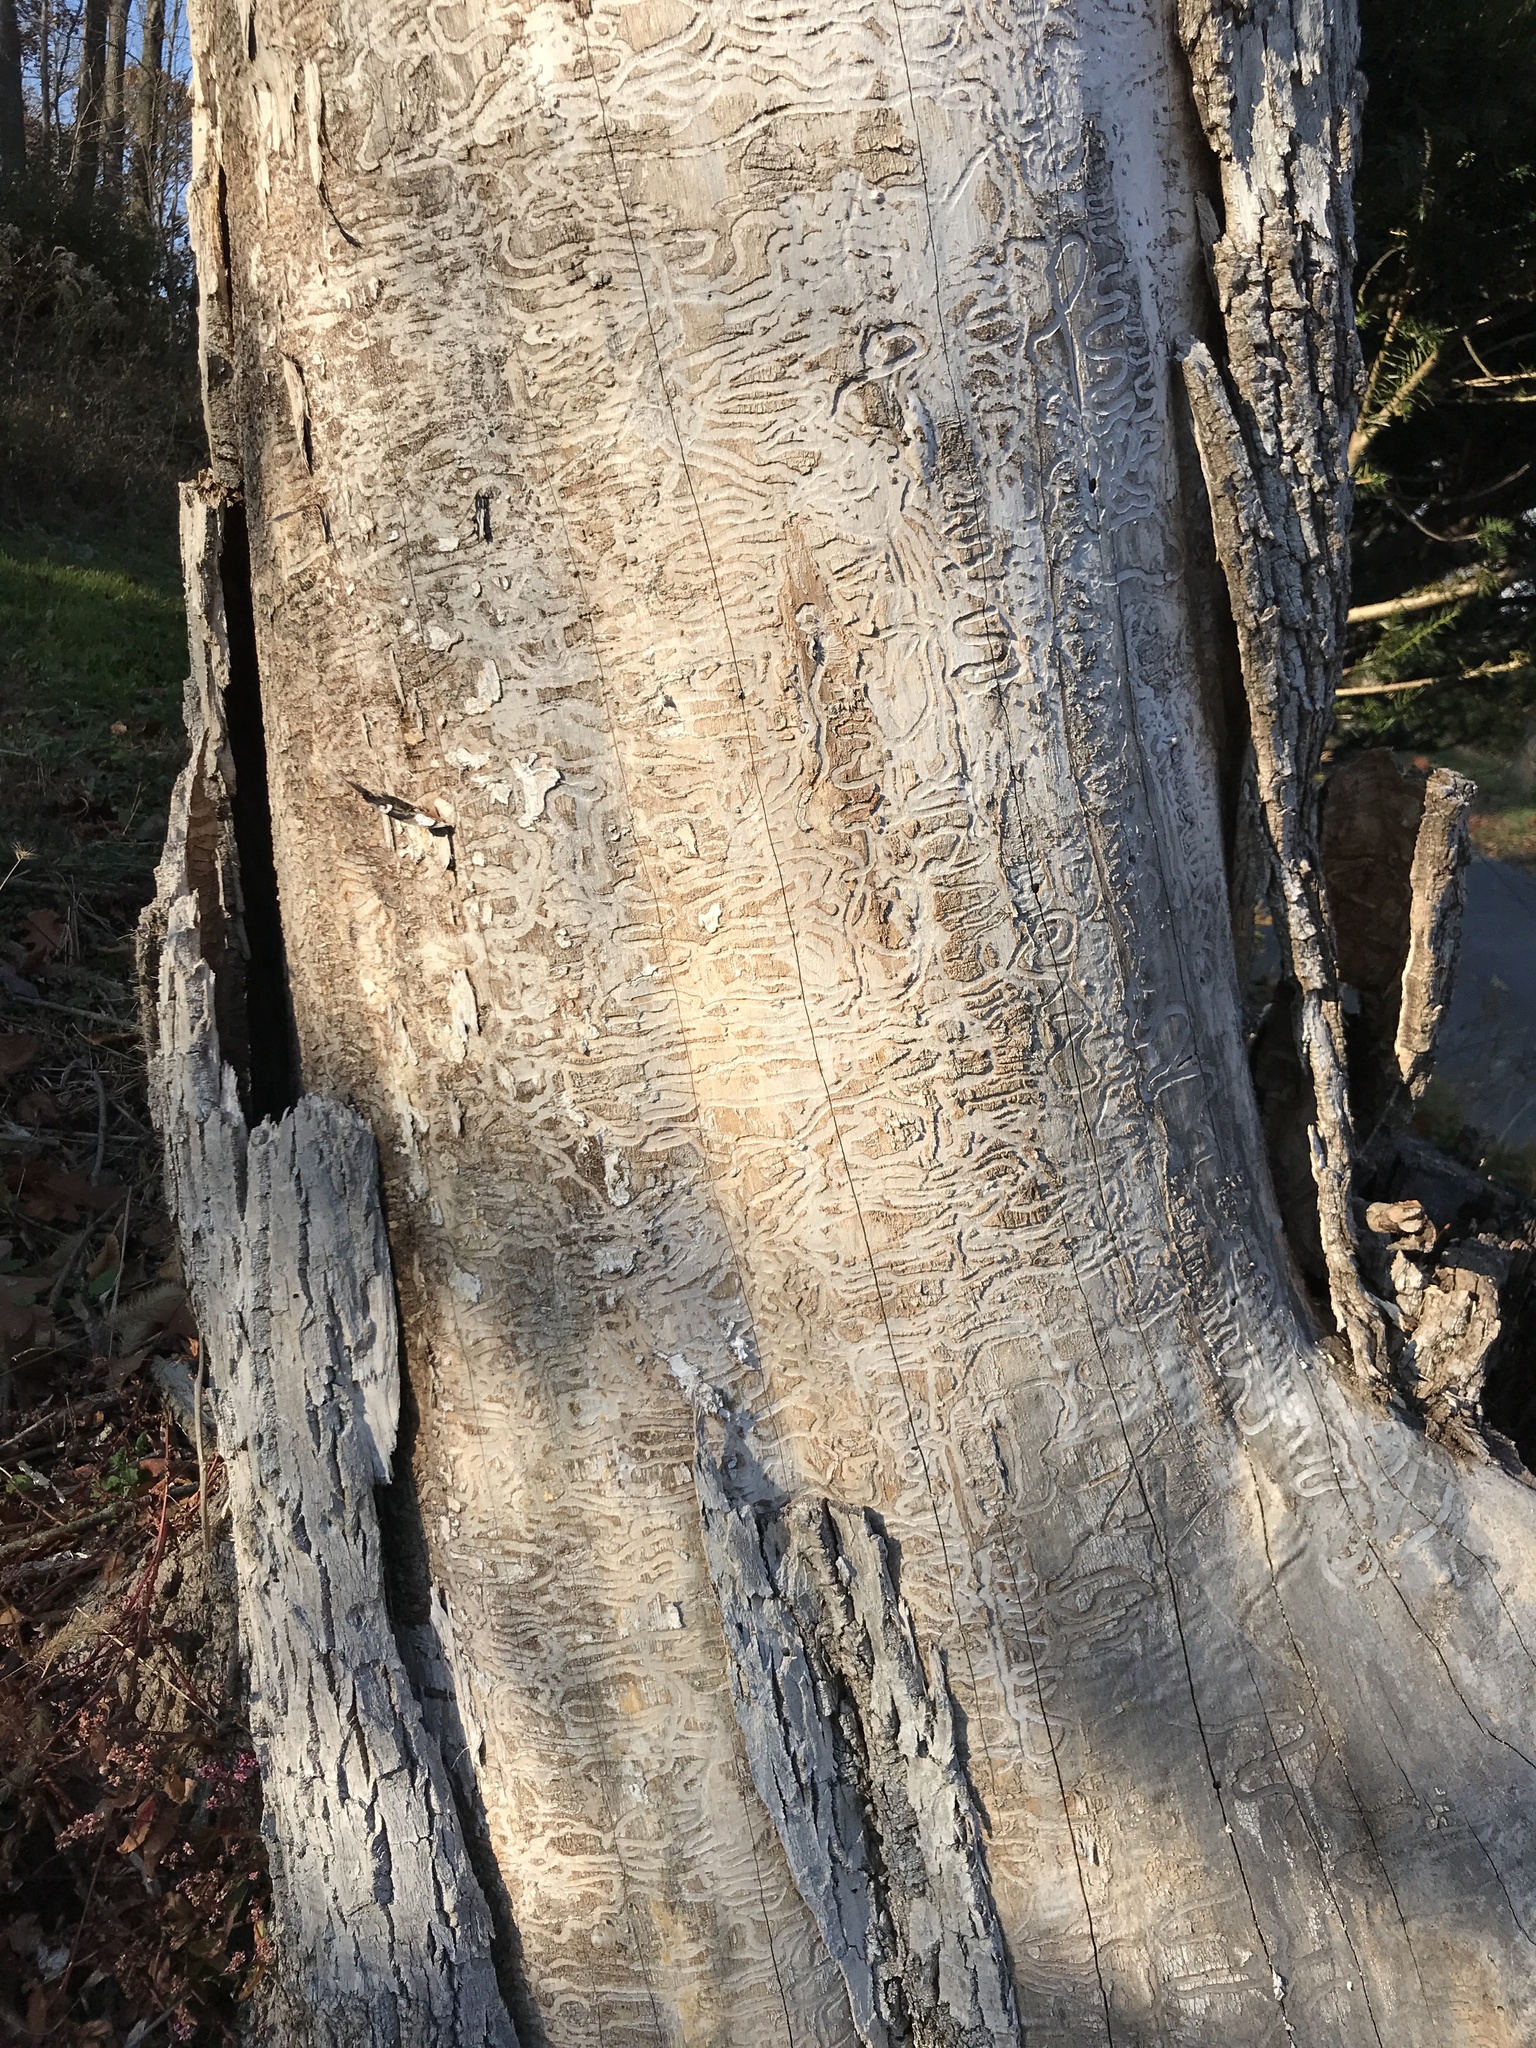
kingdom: Animalia
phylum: Arthropoda
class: Insecta
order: Coleoptera
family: Buprestidae
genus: Agrilus
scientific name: Agrilus planipennis
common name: Emerald ash borer
